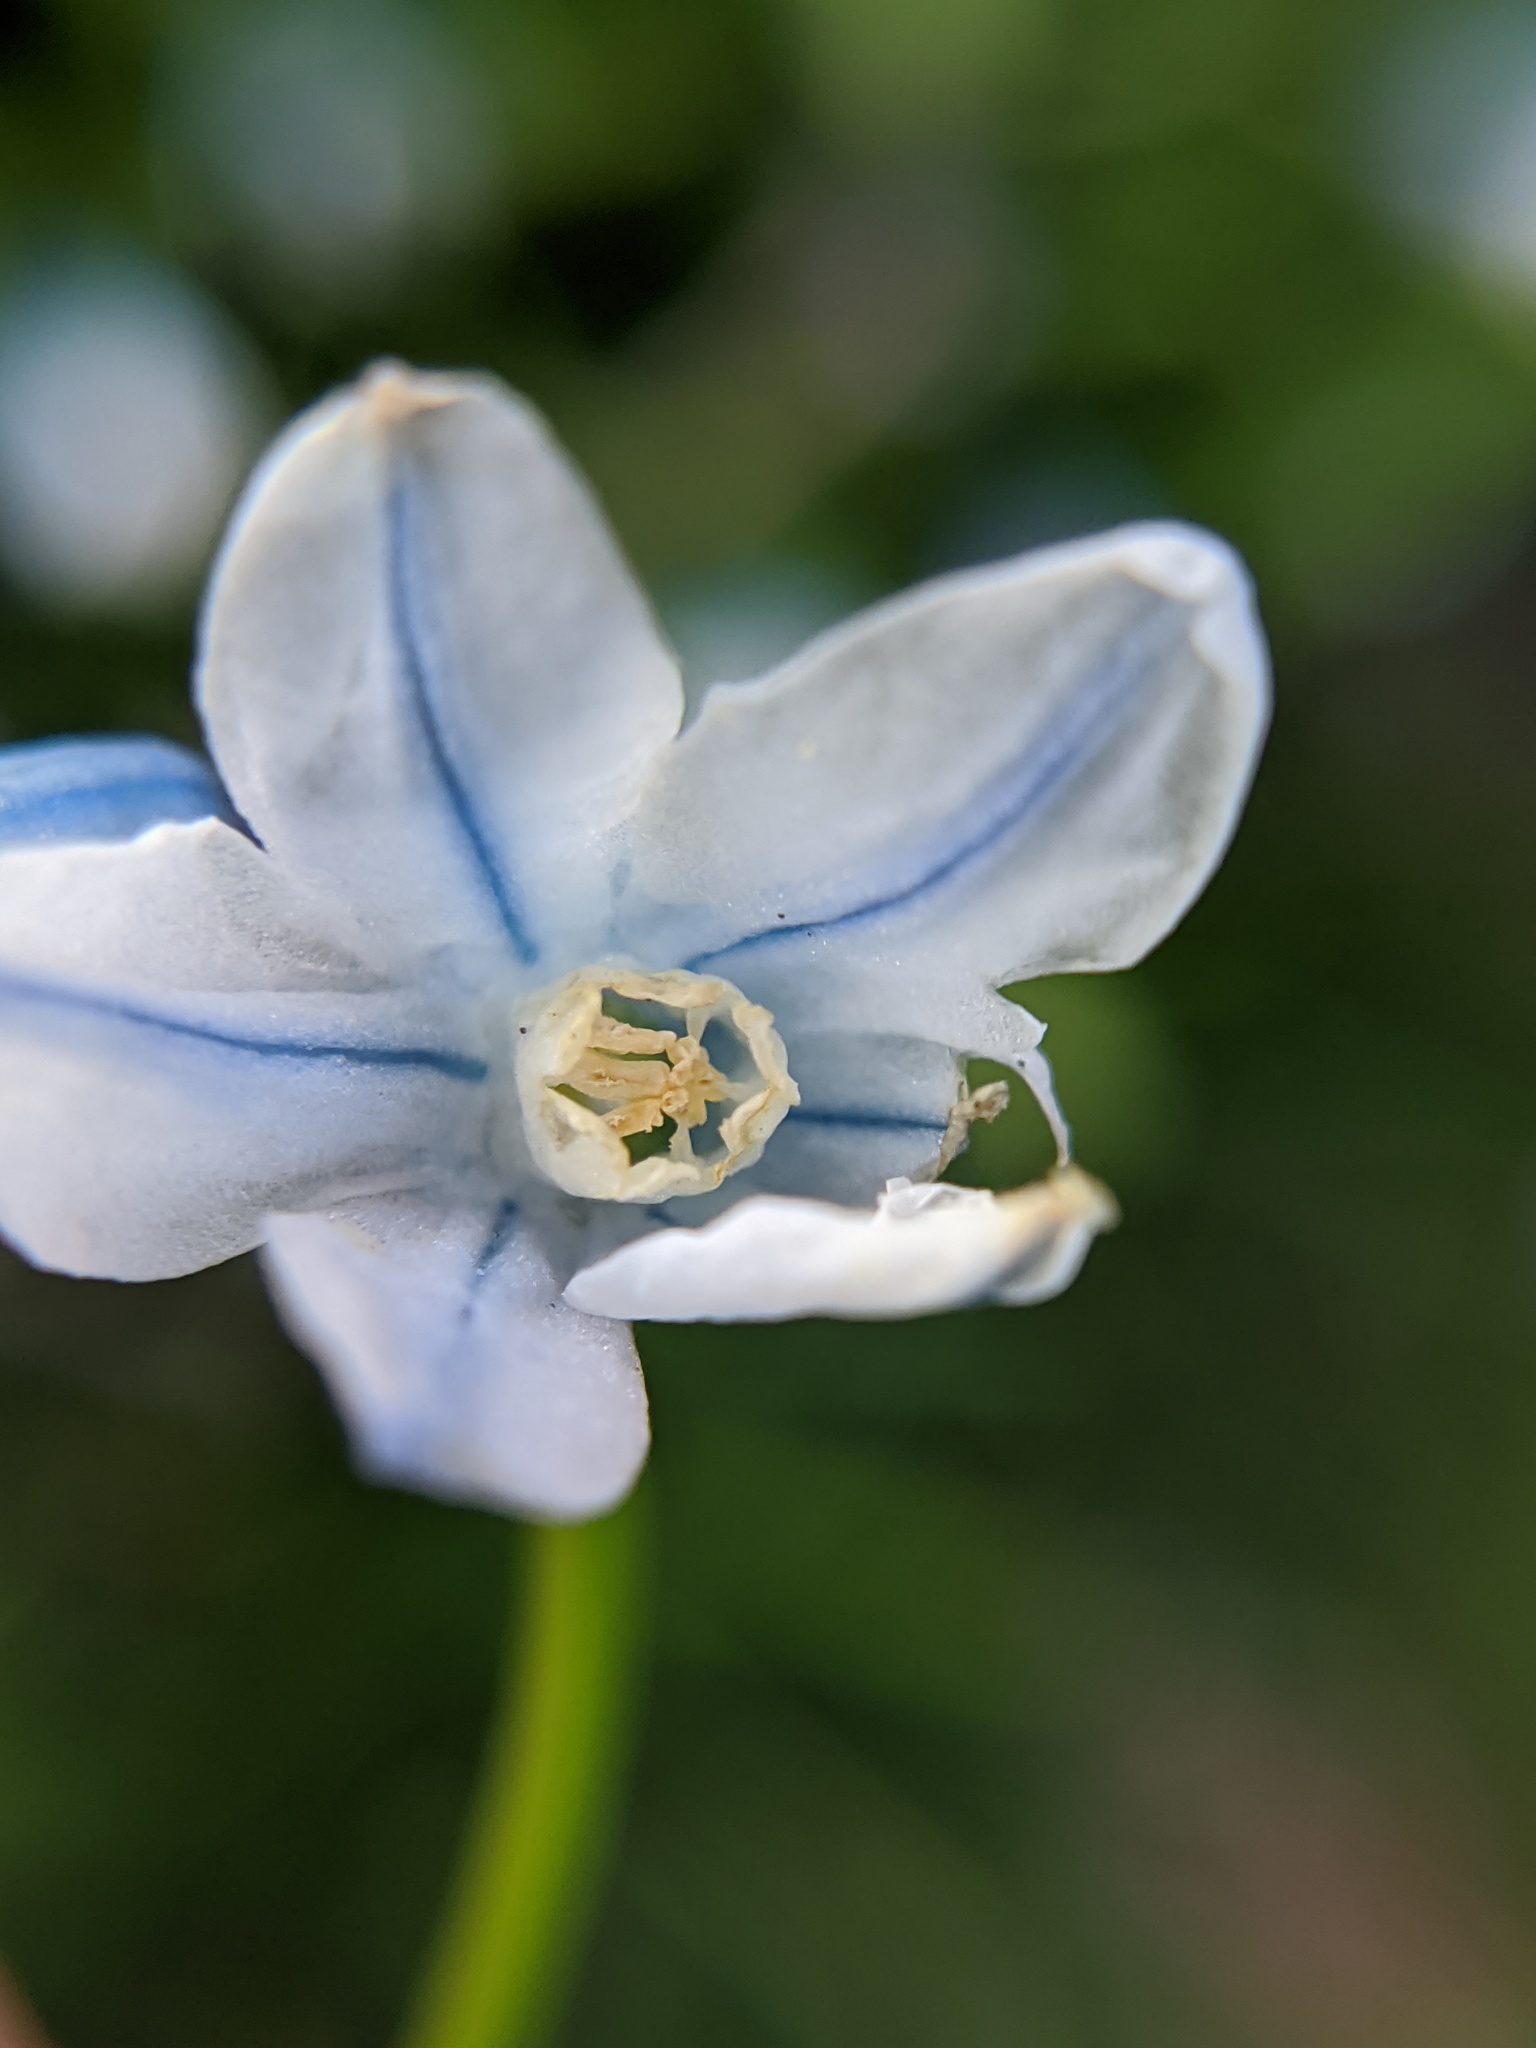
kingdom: Plantae
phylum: Tracheophyta
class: Liliopsida
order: Asparagales
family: Asparagaceae
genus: Puschkinia
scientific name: Puschkinia scilloides
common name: Striped squill
